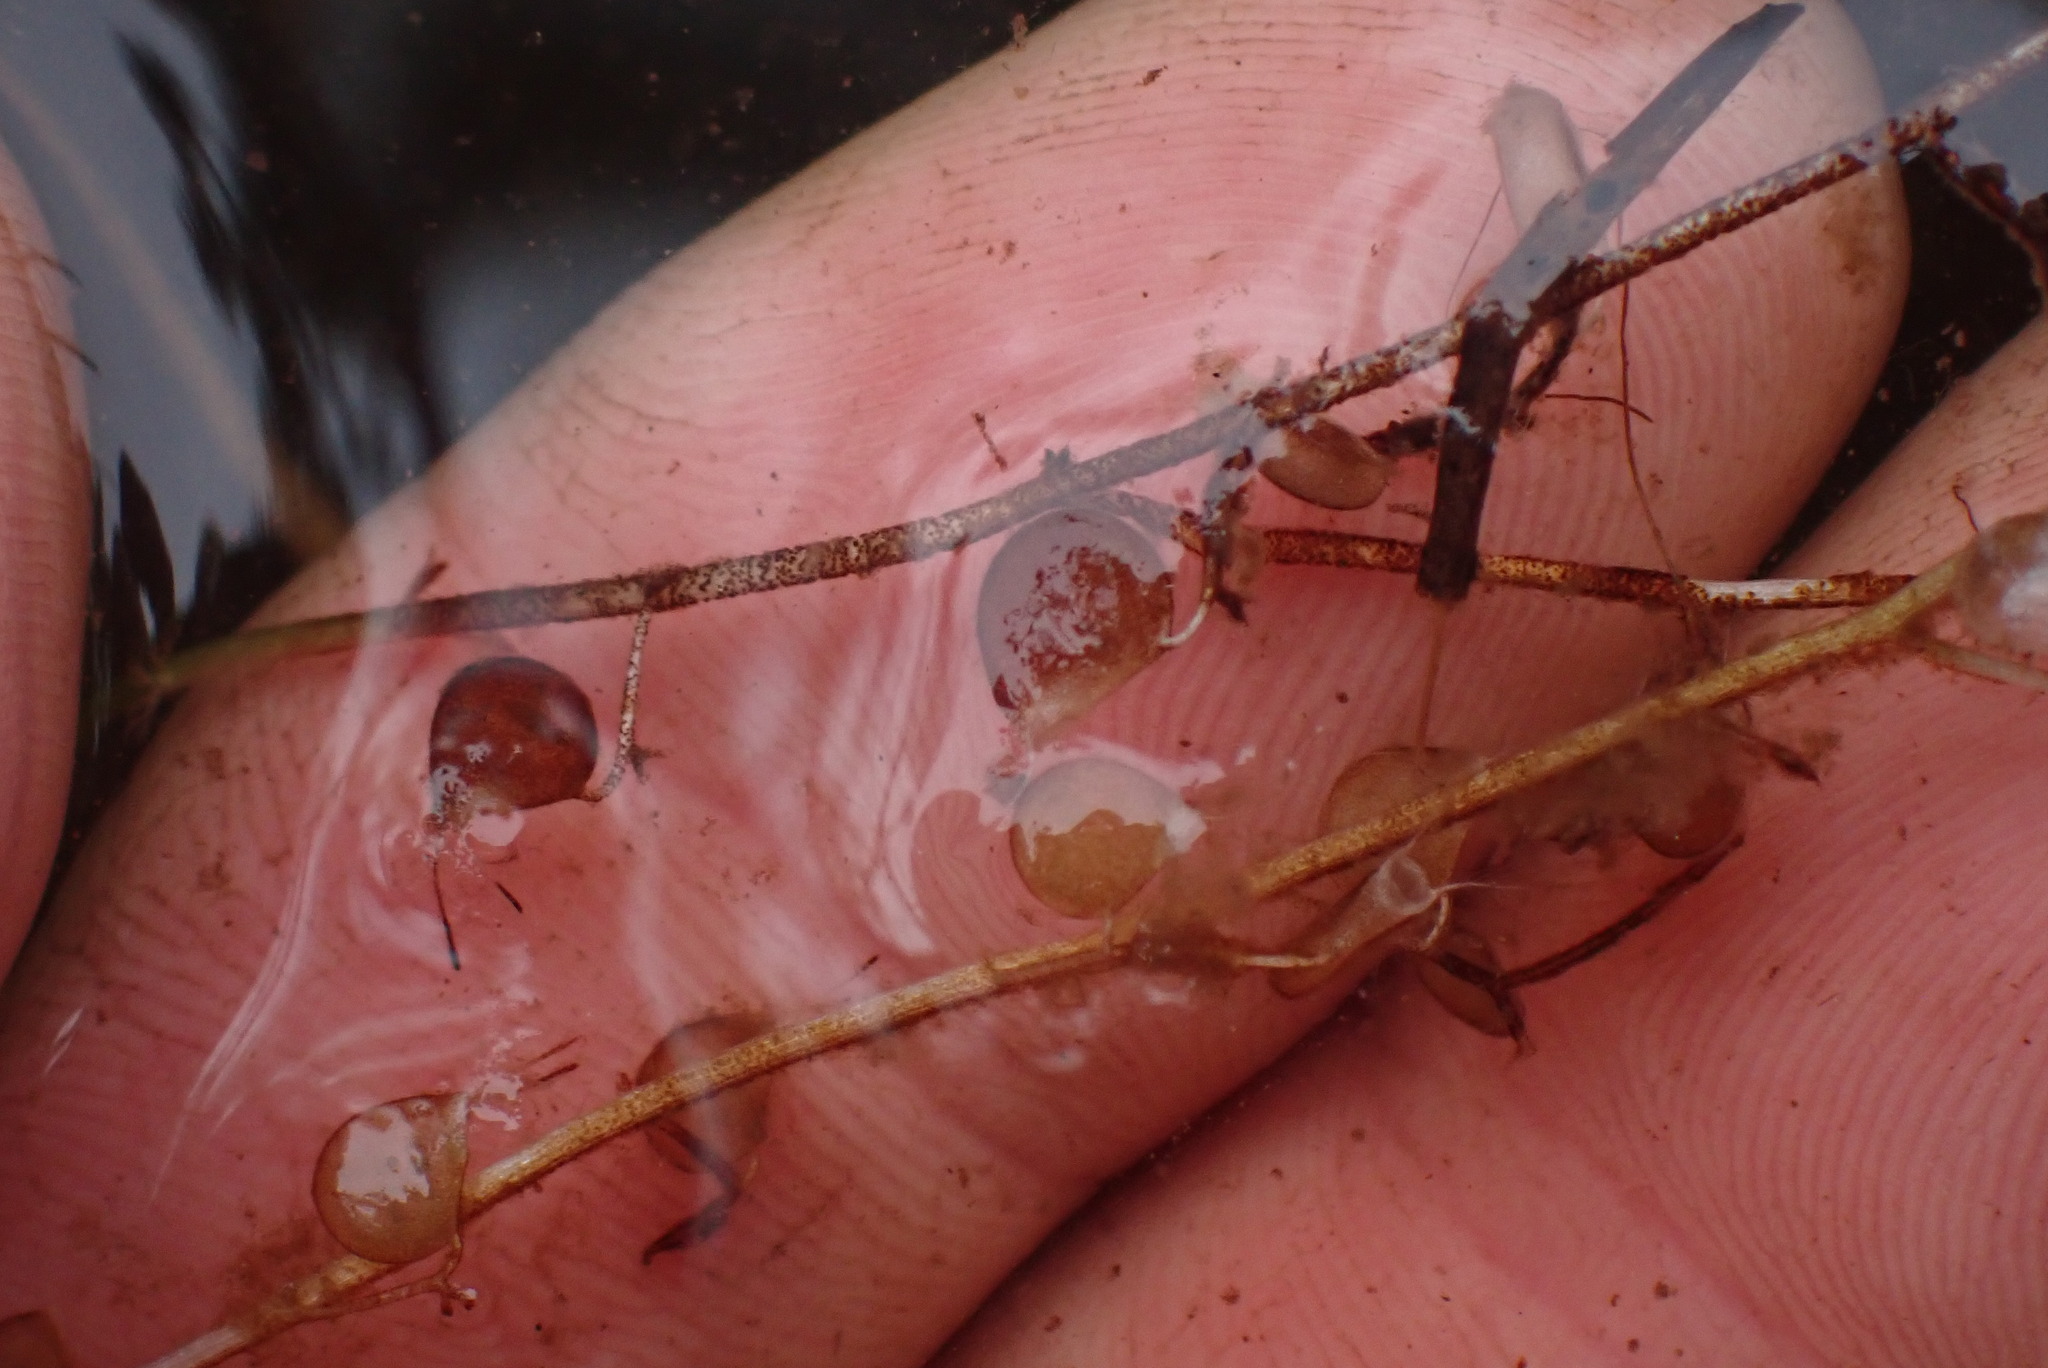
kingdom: Plantae
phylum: Tracheophyta
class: Magnoliopsida
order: Lamiales
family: Lentibulariaceae
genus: Utricularia
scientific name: Utricularia intermedia
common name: Intermediate bladderwort
